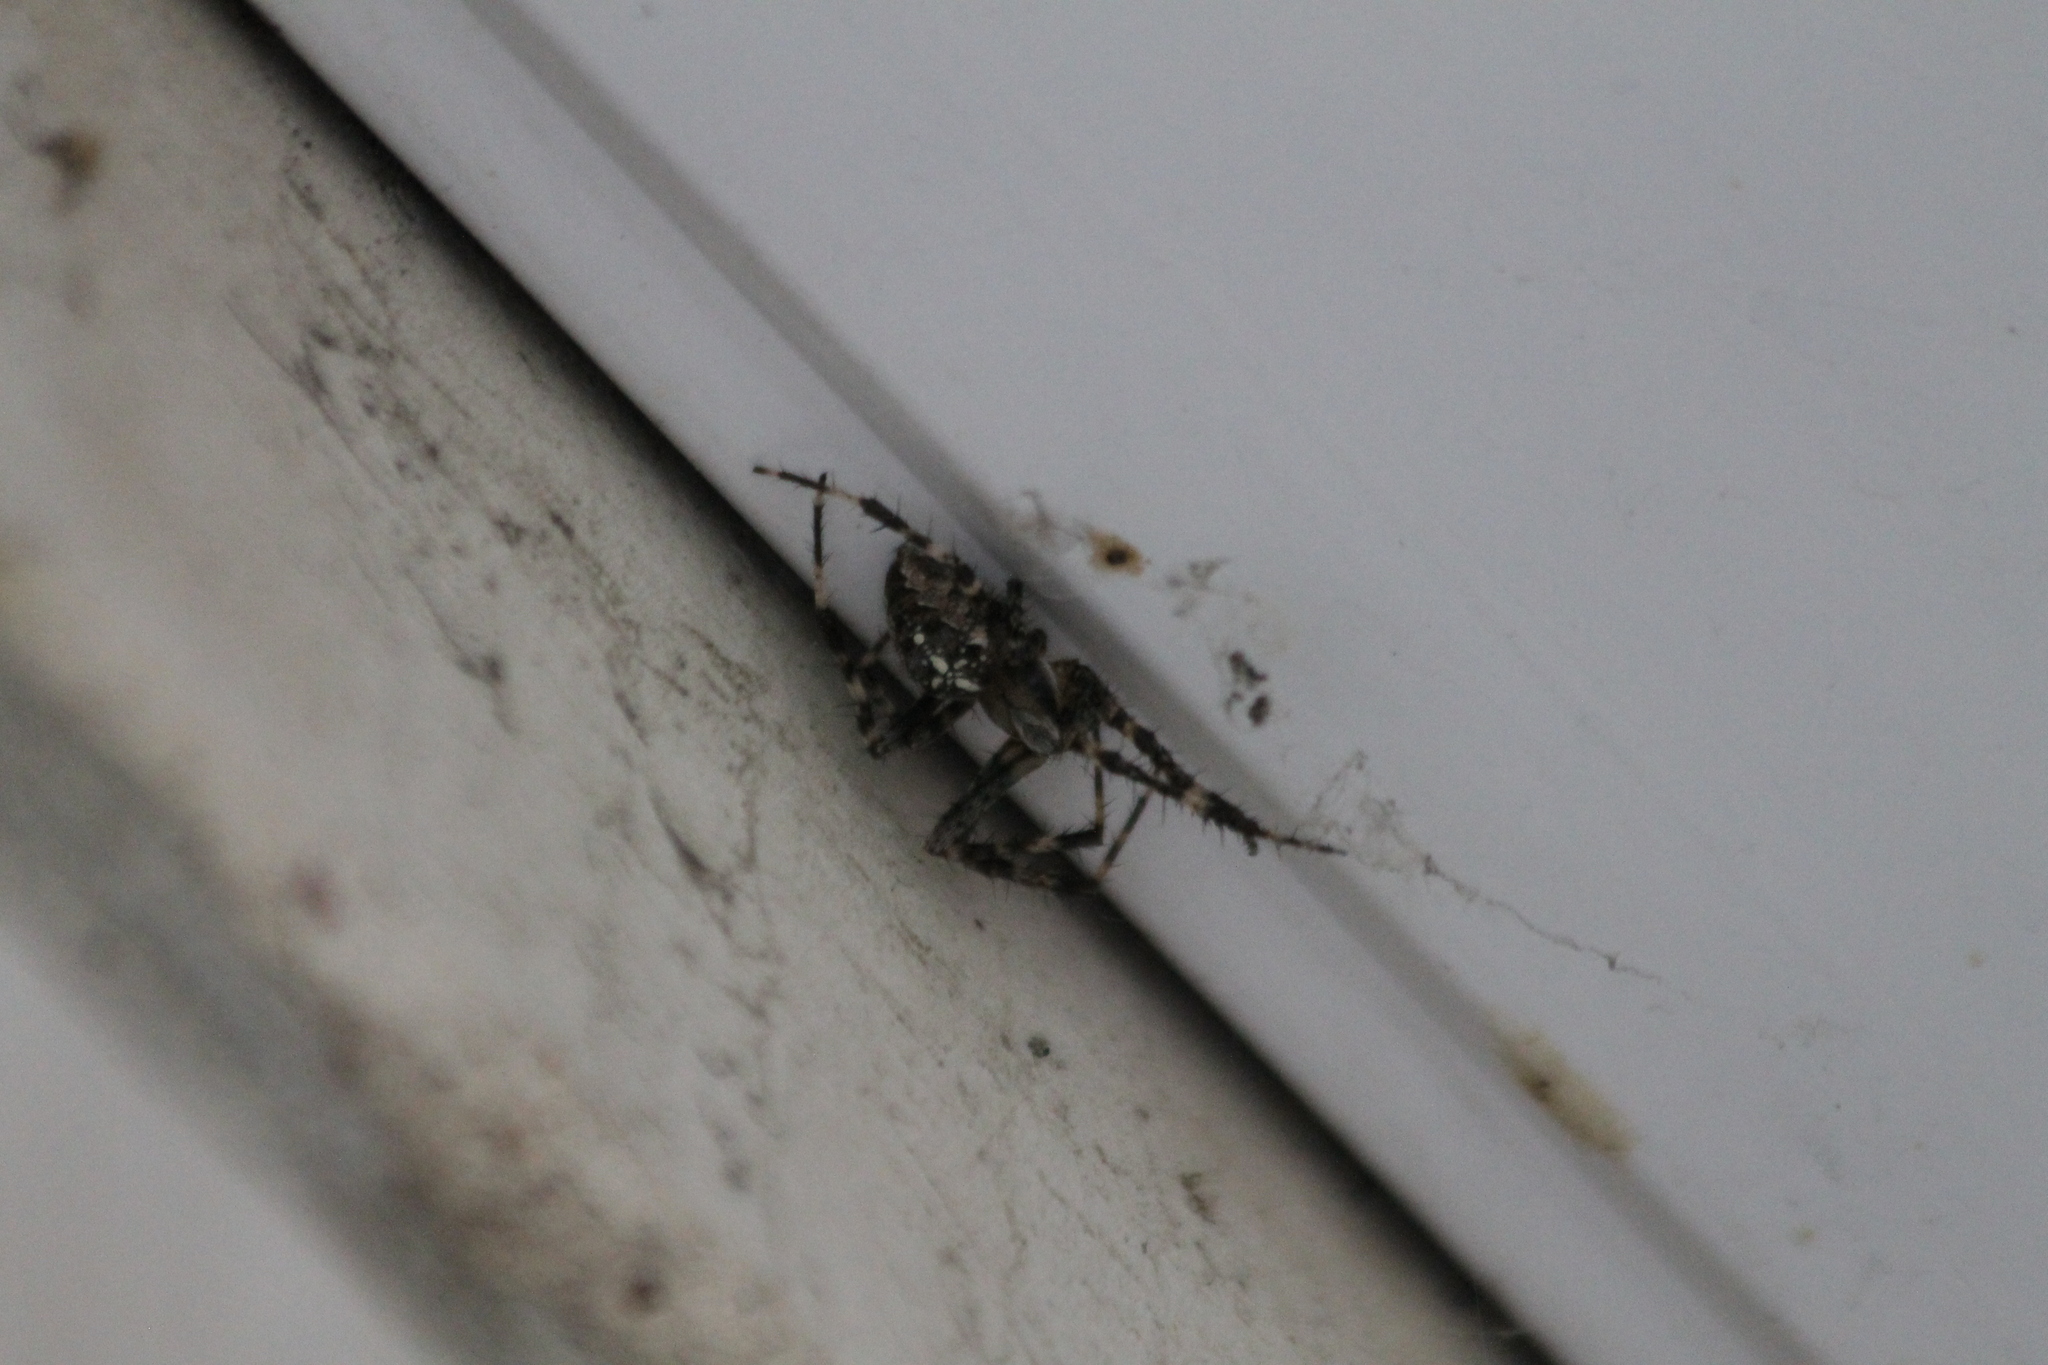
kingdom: Animalia
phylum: Arthropoda
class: Arachnida
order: Araneae
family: Araneidae
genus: Araneus
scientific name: Araneus diadematus
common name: Cross orbweaver
